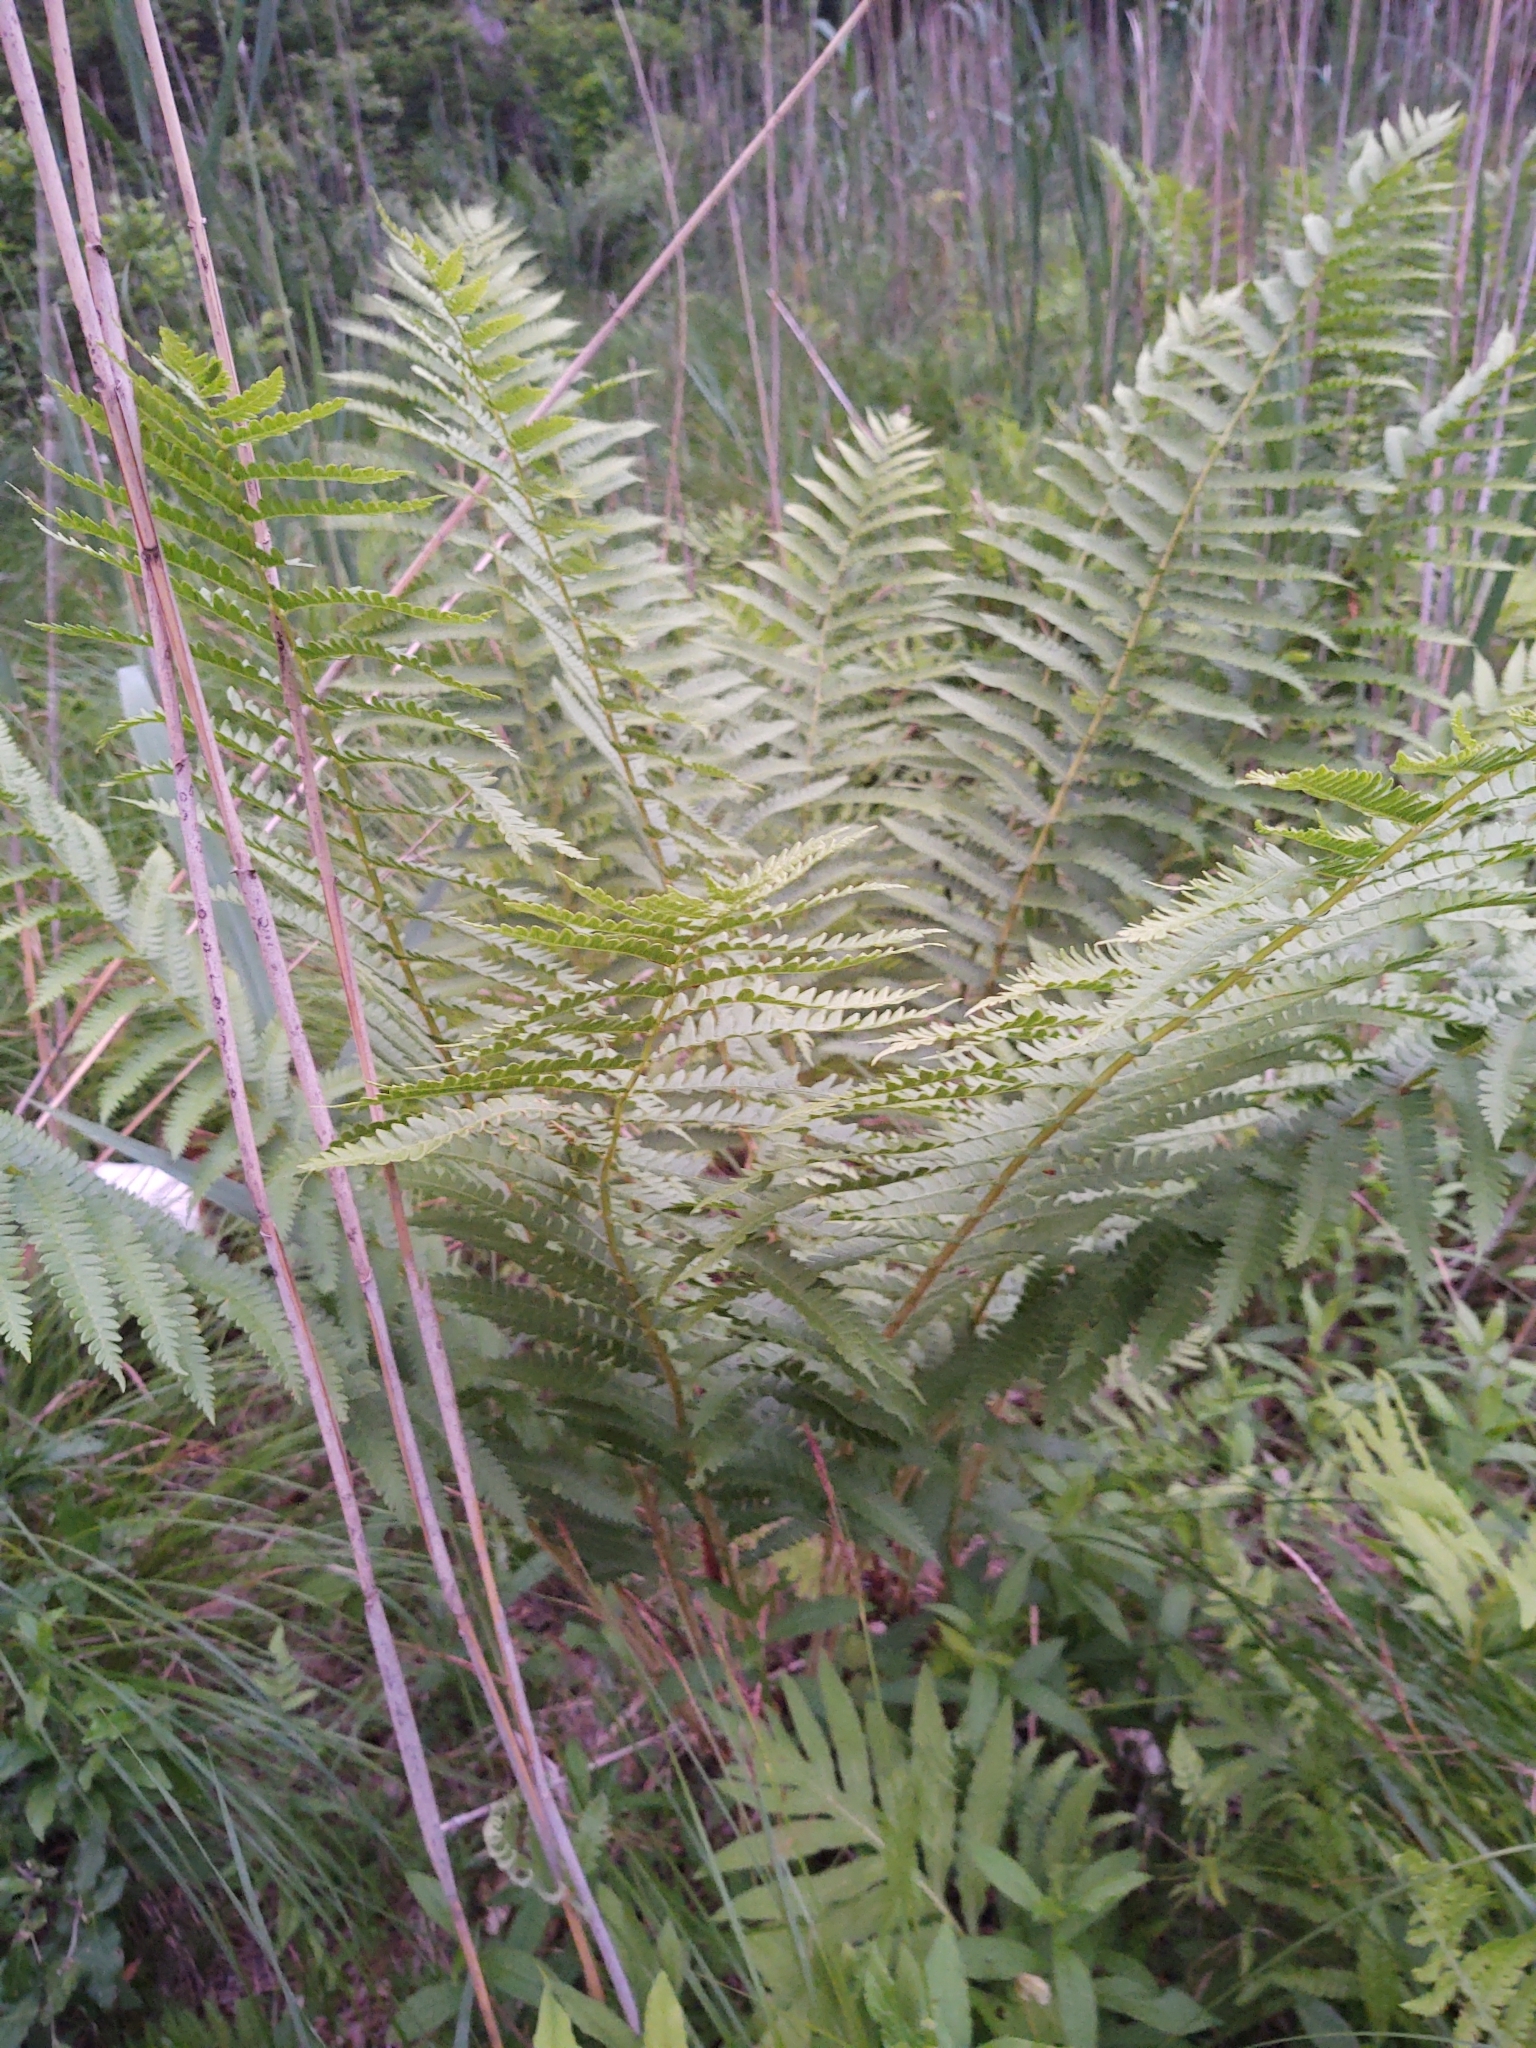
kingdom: Plantae
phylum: Tracheophyta
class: Polypodiopsida
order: Osmundales
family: Osmundaceae
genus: Osmundastrum
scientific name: Osmundastrum cinnamomeum
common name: Cinnamon fern
